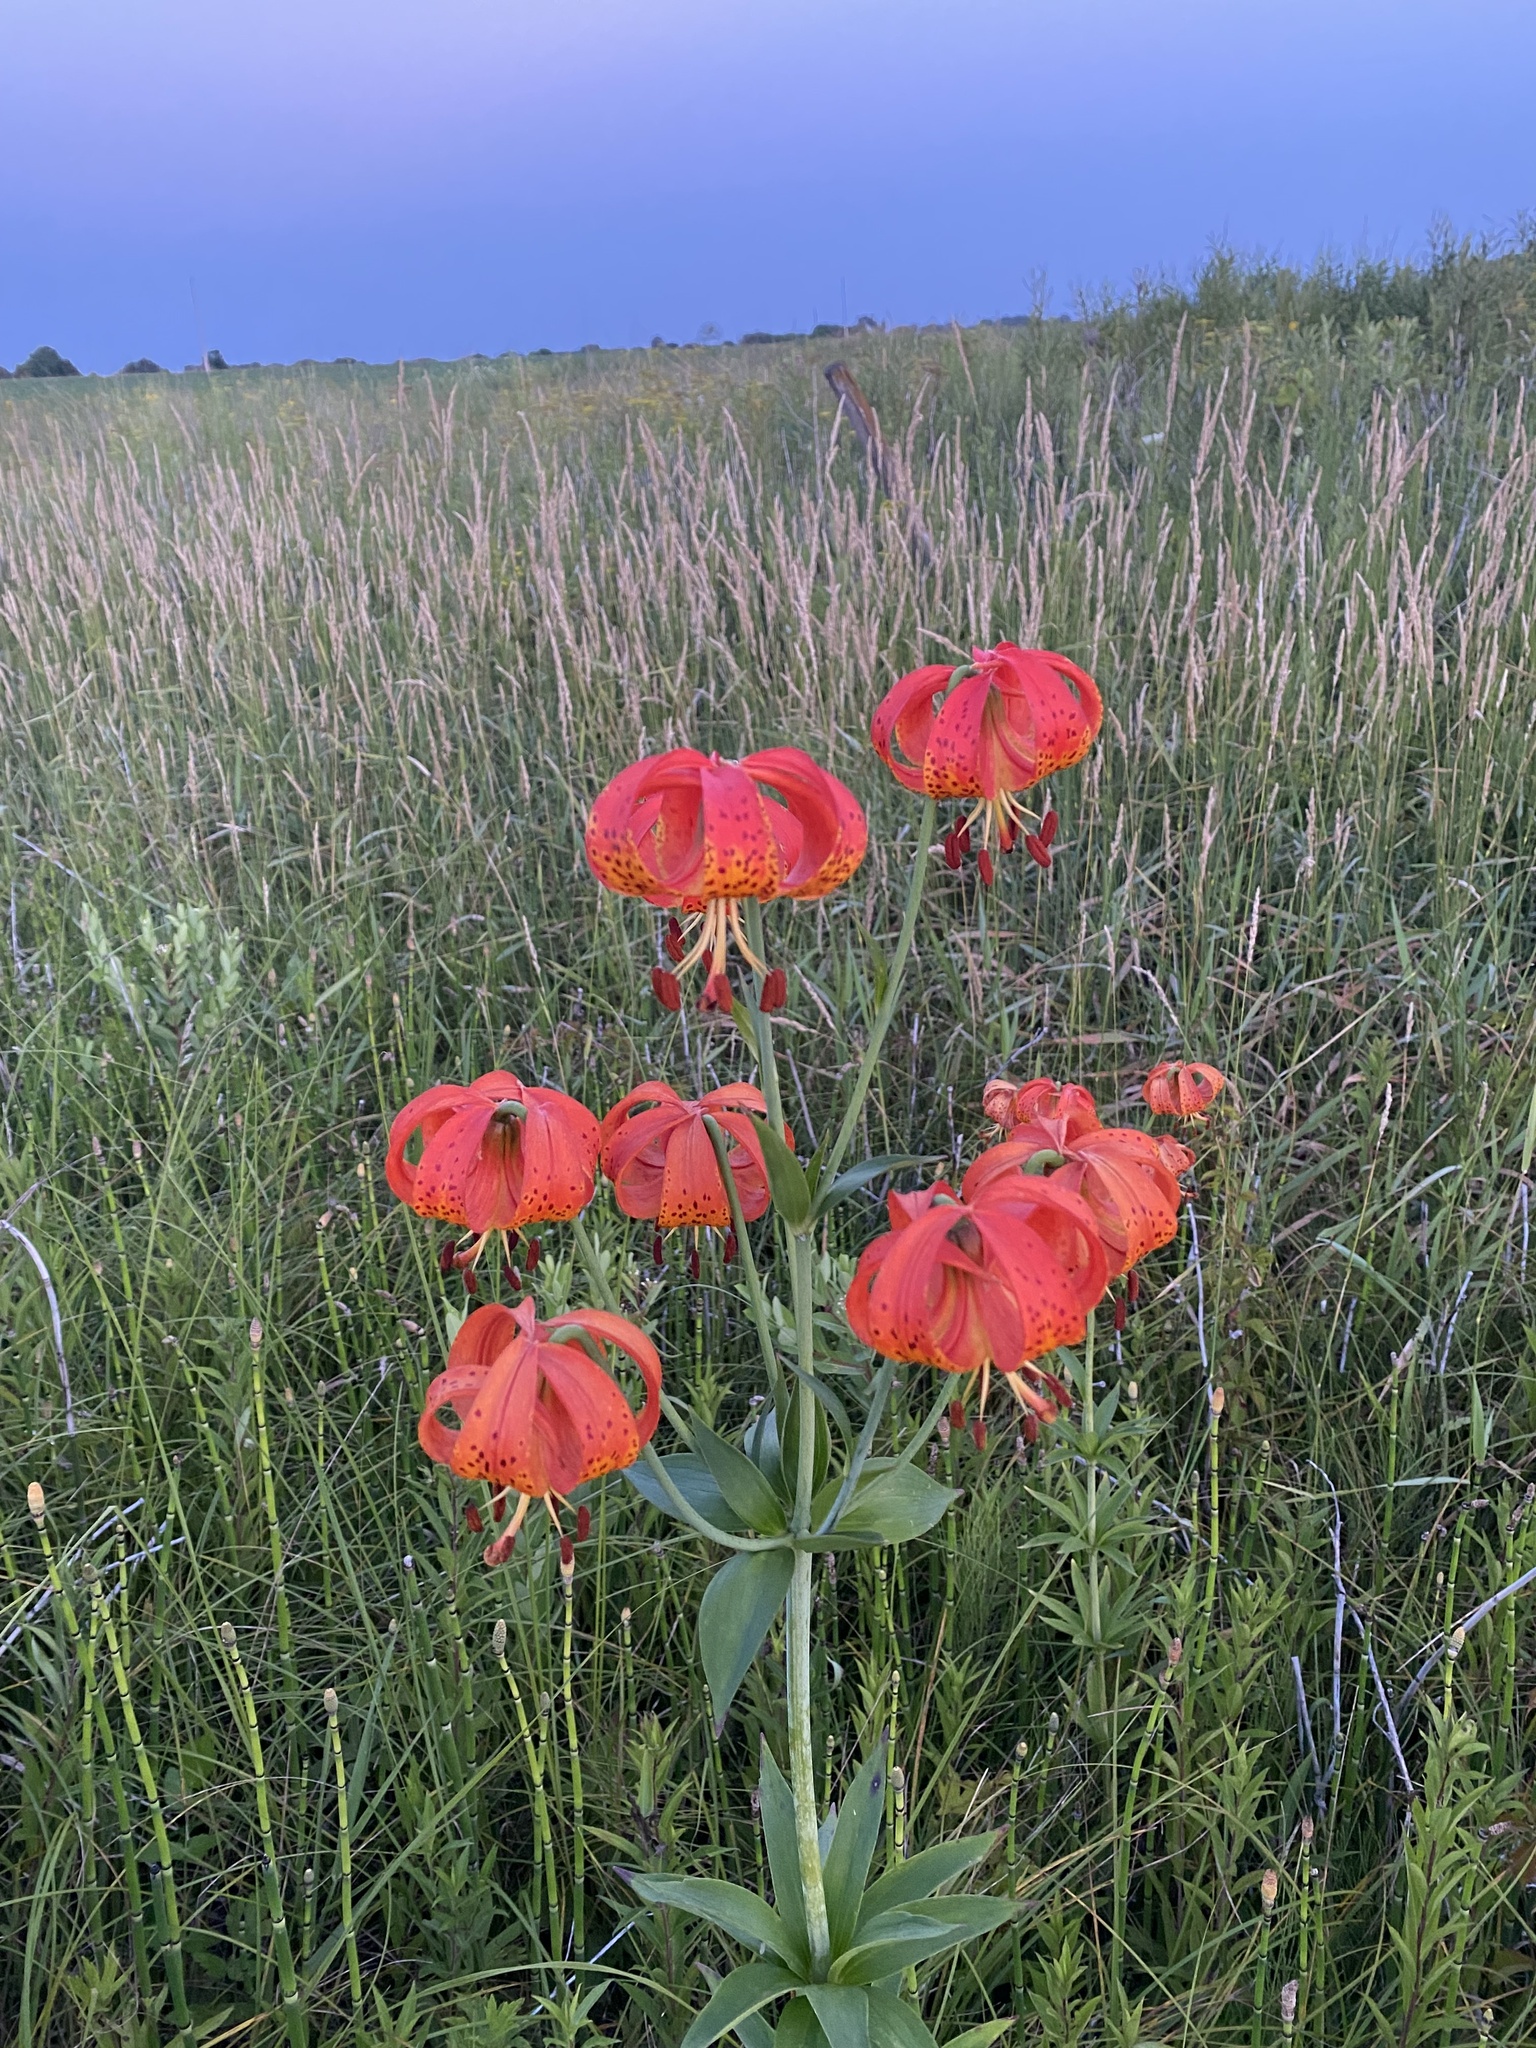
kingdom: Plantae
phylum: Tracheophyta
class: Liliopsida
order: Liliales
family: Liliaceae
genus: Lilium
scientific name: Lilium michiganense
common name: Michigan lily
